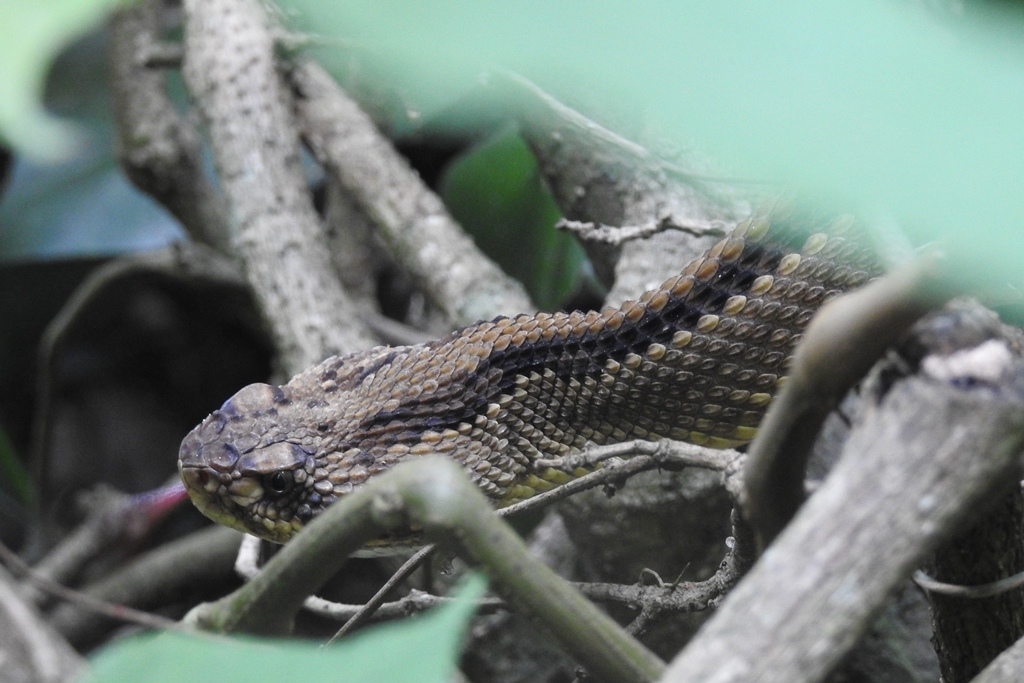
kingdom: Animalia
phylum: Chordata
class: Squamata
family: Viperidae
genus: Crotalus
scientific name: Crotalus ehecatl
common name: Tehuantepec isthmus neotropical rattlesnake
